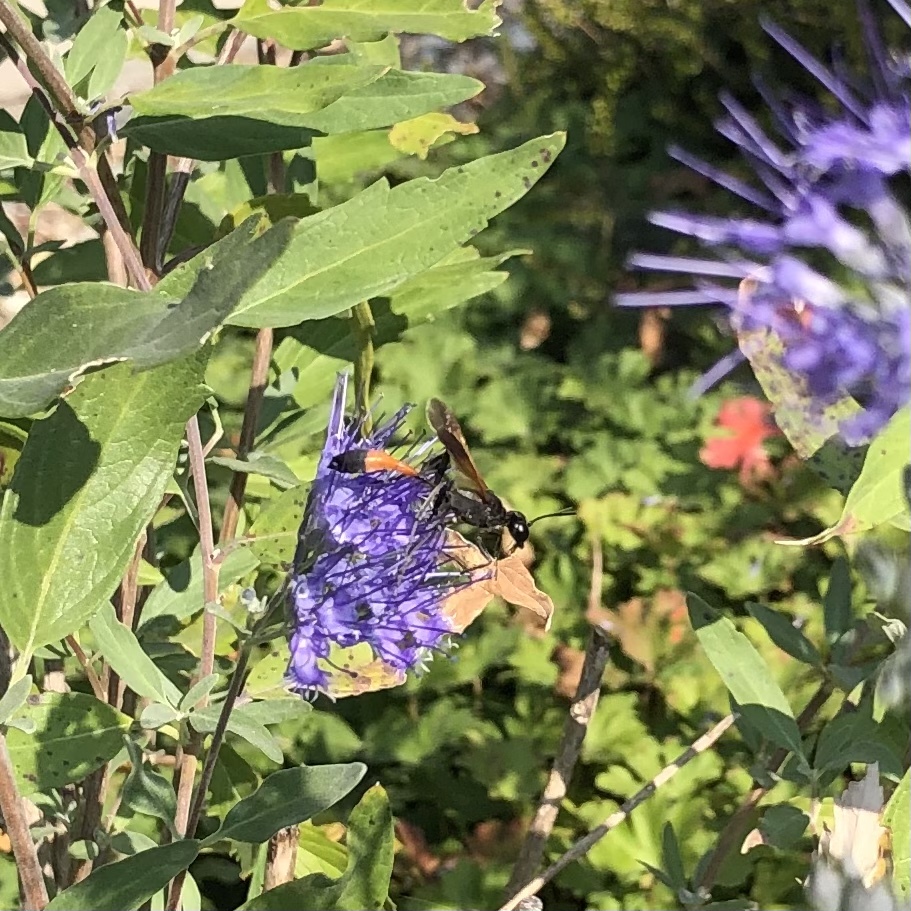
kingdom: Animalia
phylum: Arthropoda
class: Insecta
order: Hymenoptera
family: Sphecidae
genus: Ammophila
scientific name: Ammophila pictipennis
